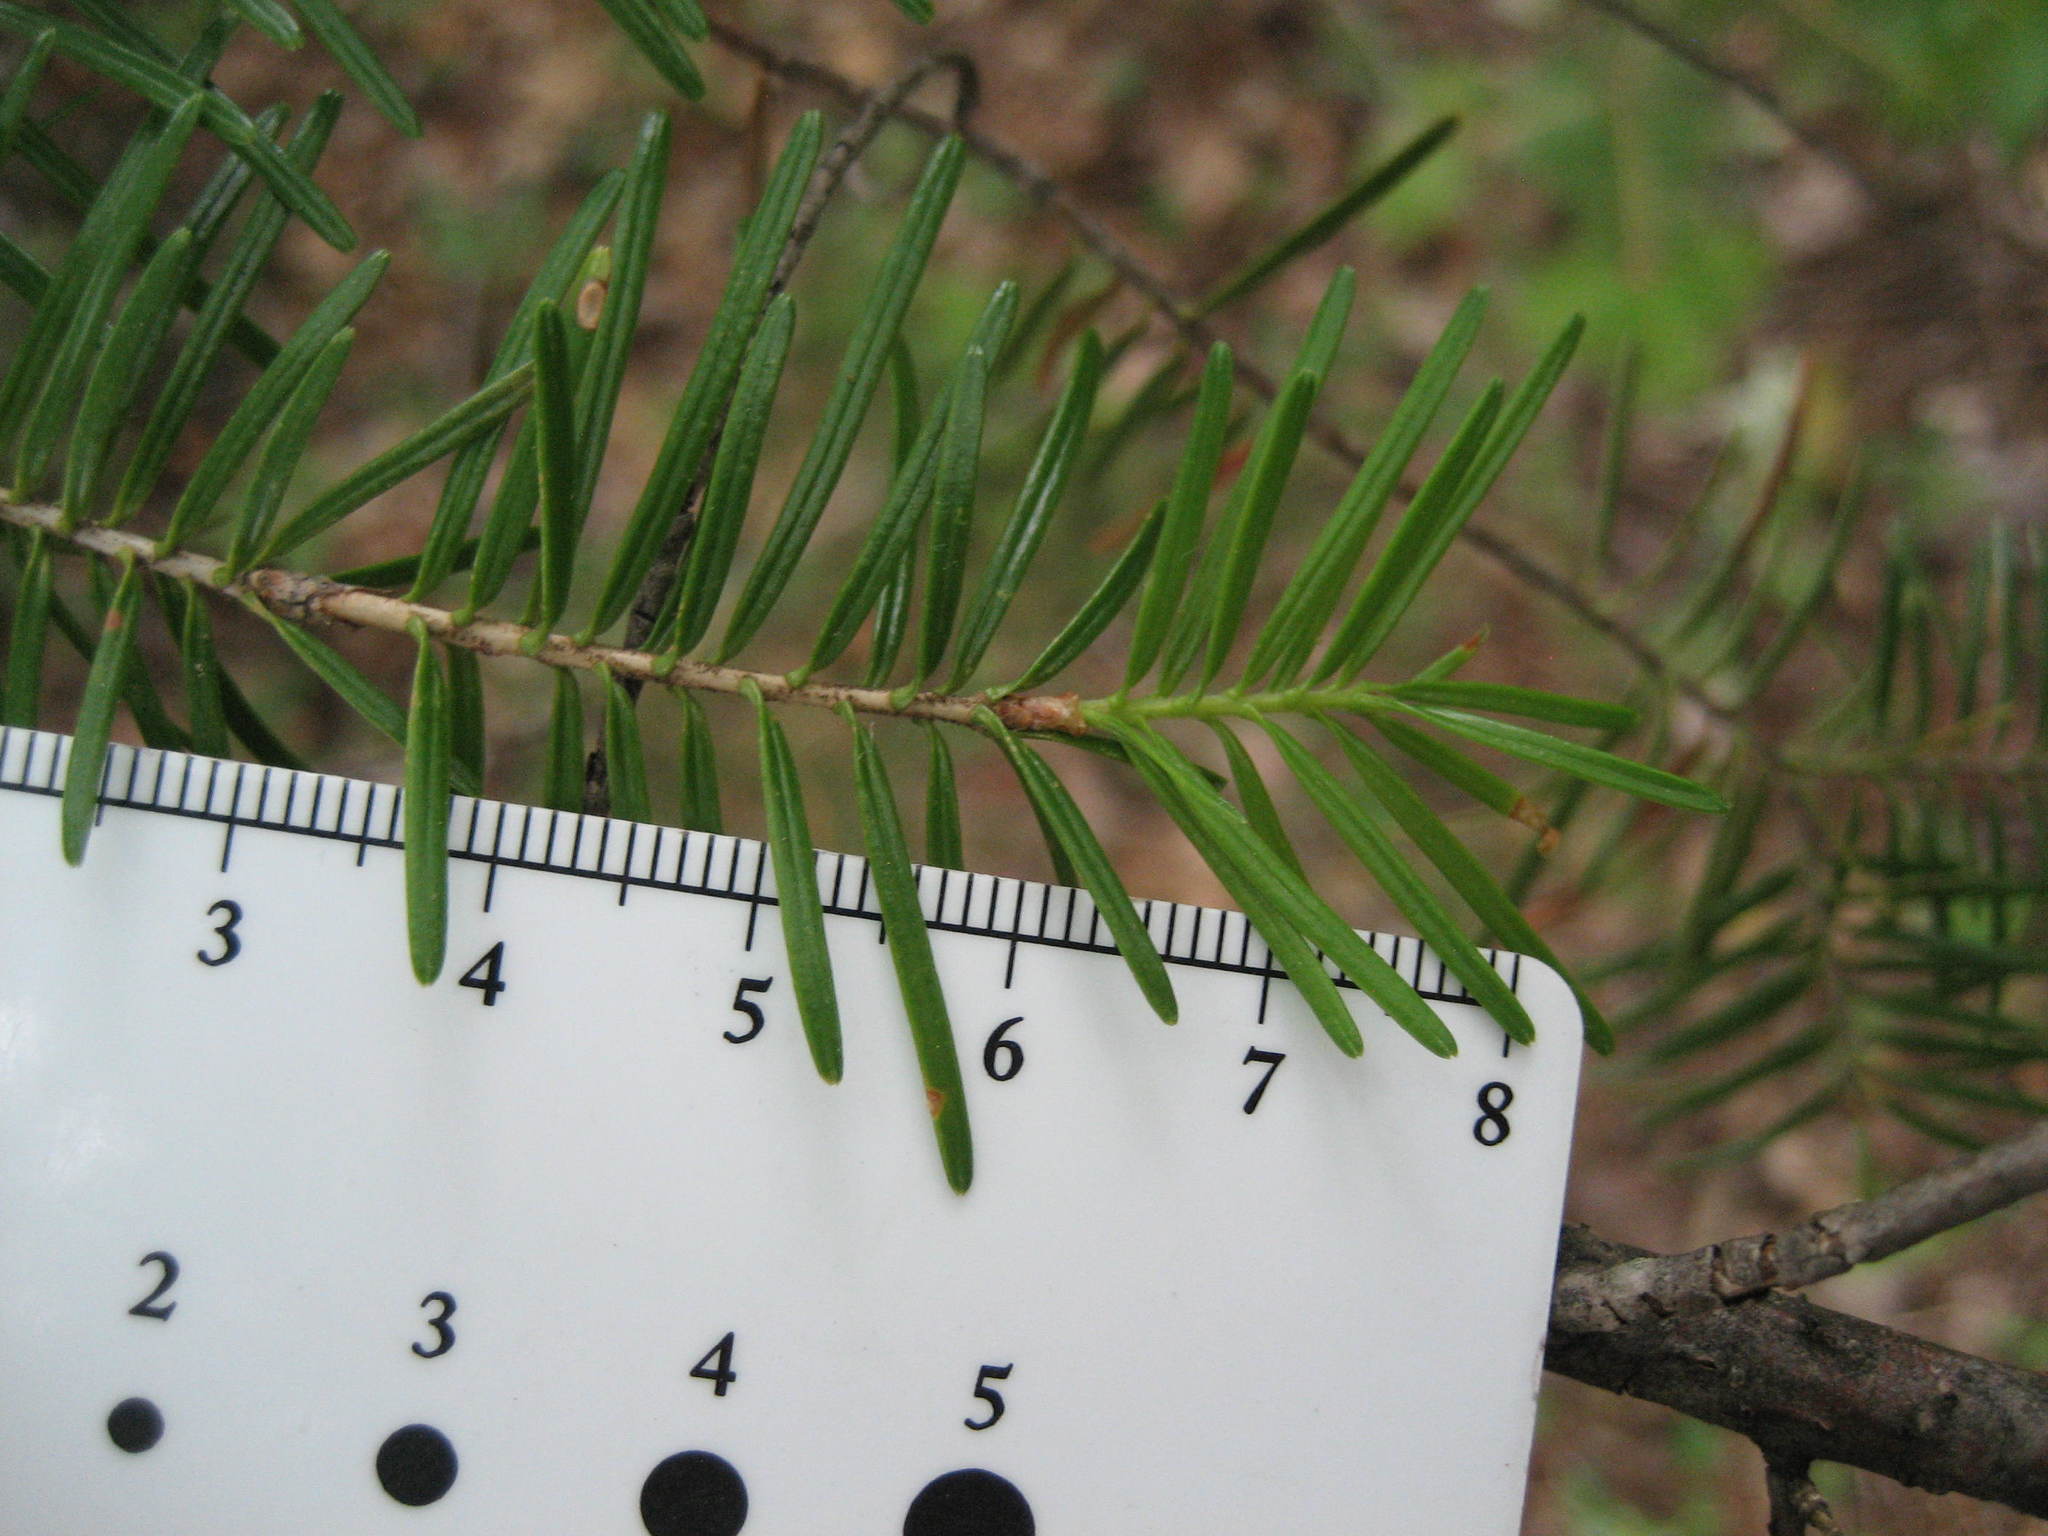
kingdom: Plantae
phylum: Tracheophyta
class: Pinopsida
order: Pinales
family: Pinaceae
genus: Abies
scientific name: Abies balsamea
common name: Balsam fir
